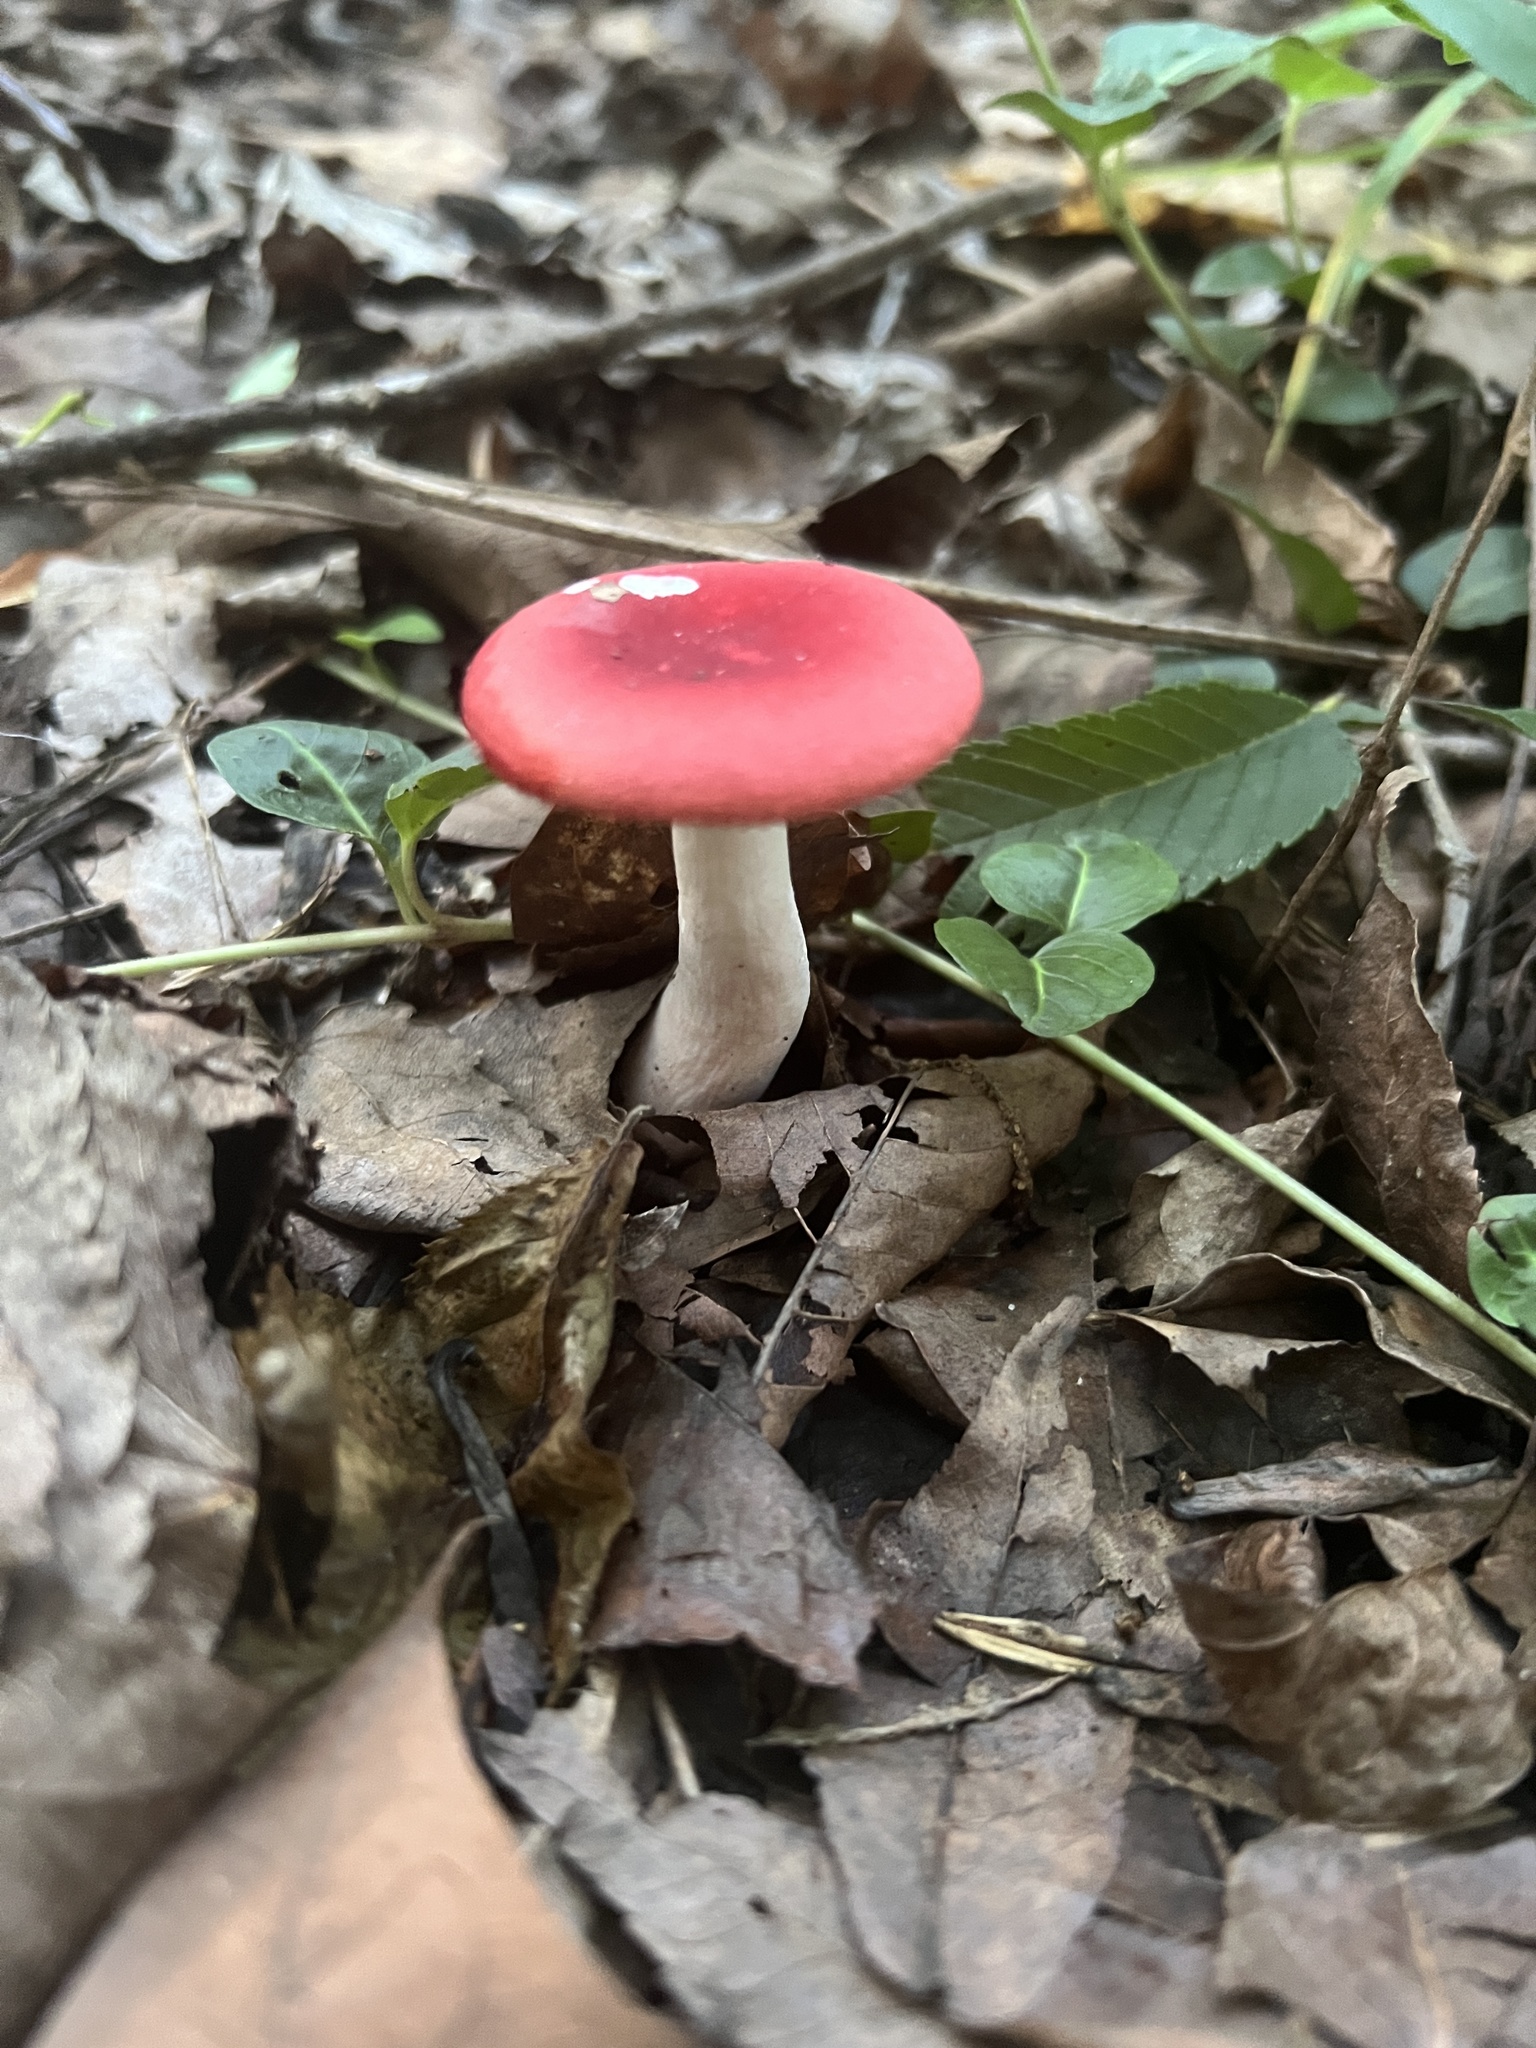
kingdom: Fungi
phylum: Basidiomycota
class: Agaricomycetes
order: Russulales
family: Russulaceae
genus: Russula
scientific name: Russula
